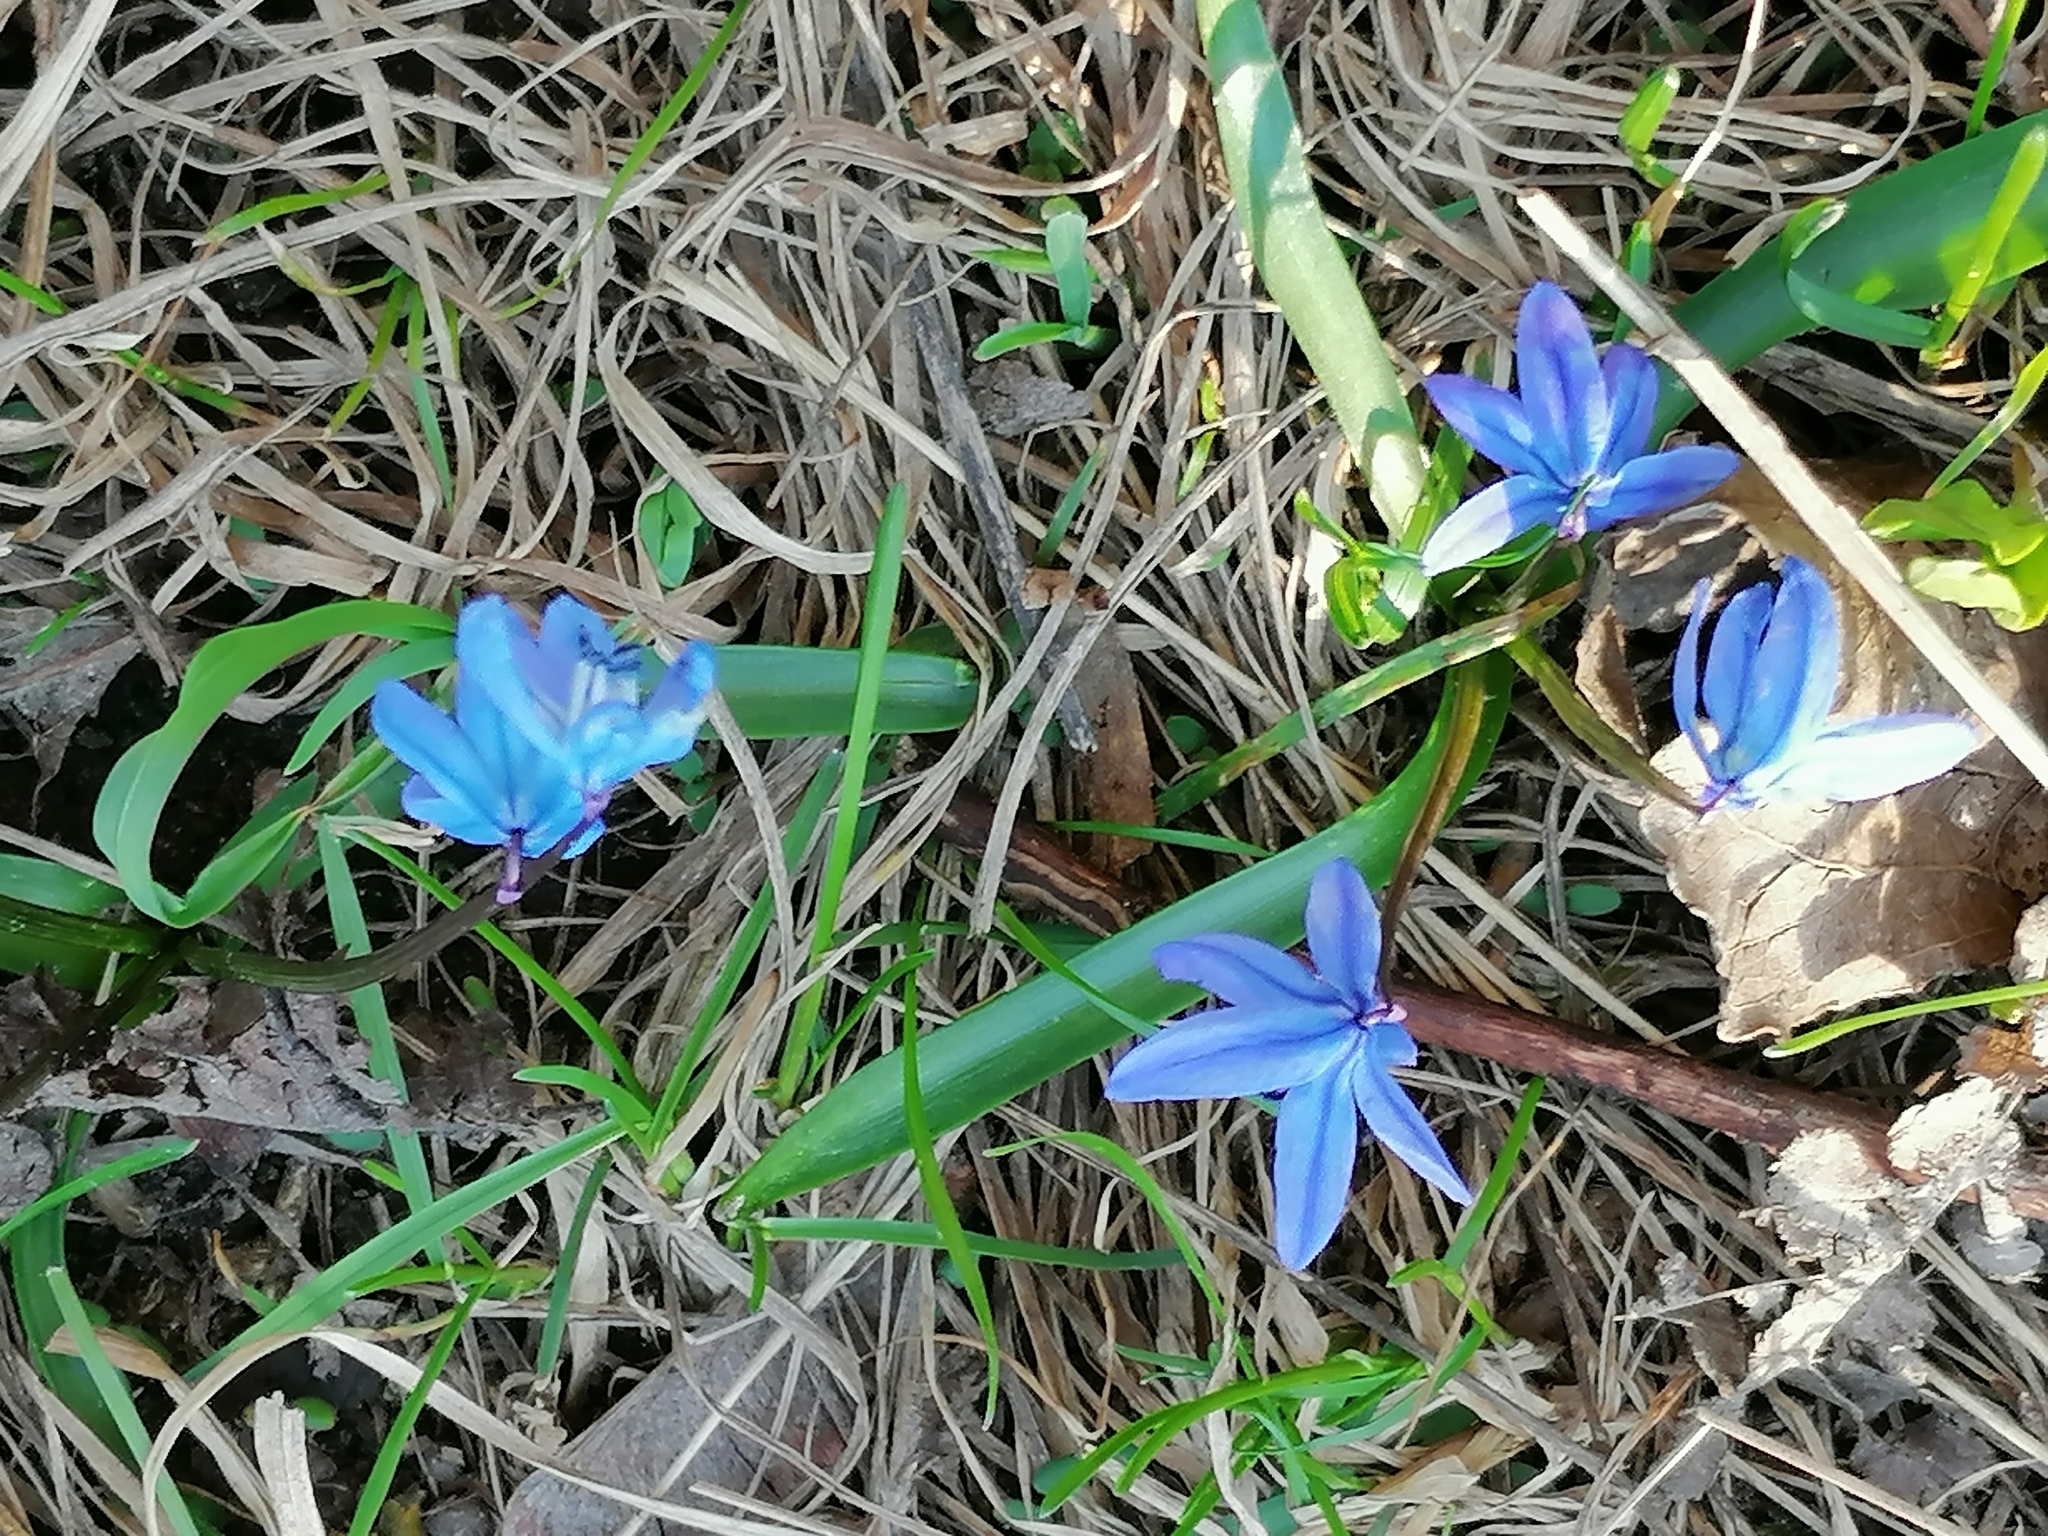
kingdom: Plantae
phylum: Tracheophyta
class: Liliopsida
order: Asparagales
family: Asparagaceae
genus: Scilla
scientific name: Scilla siberica
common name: Siberian squill
